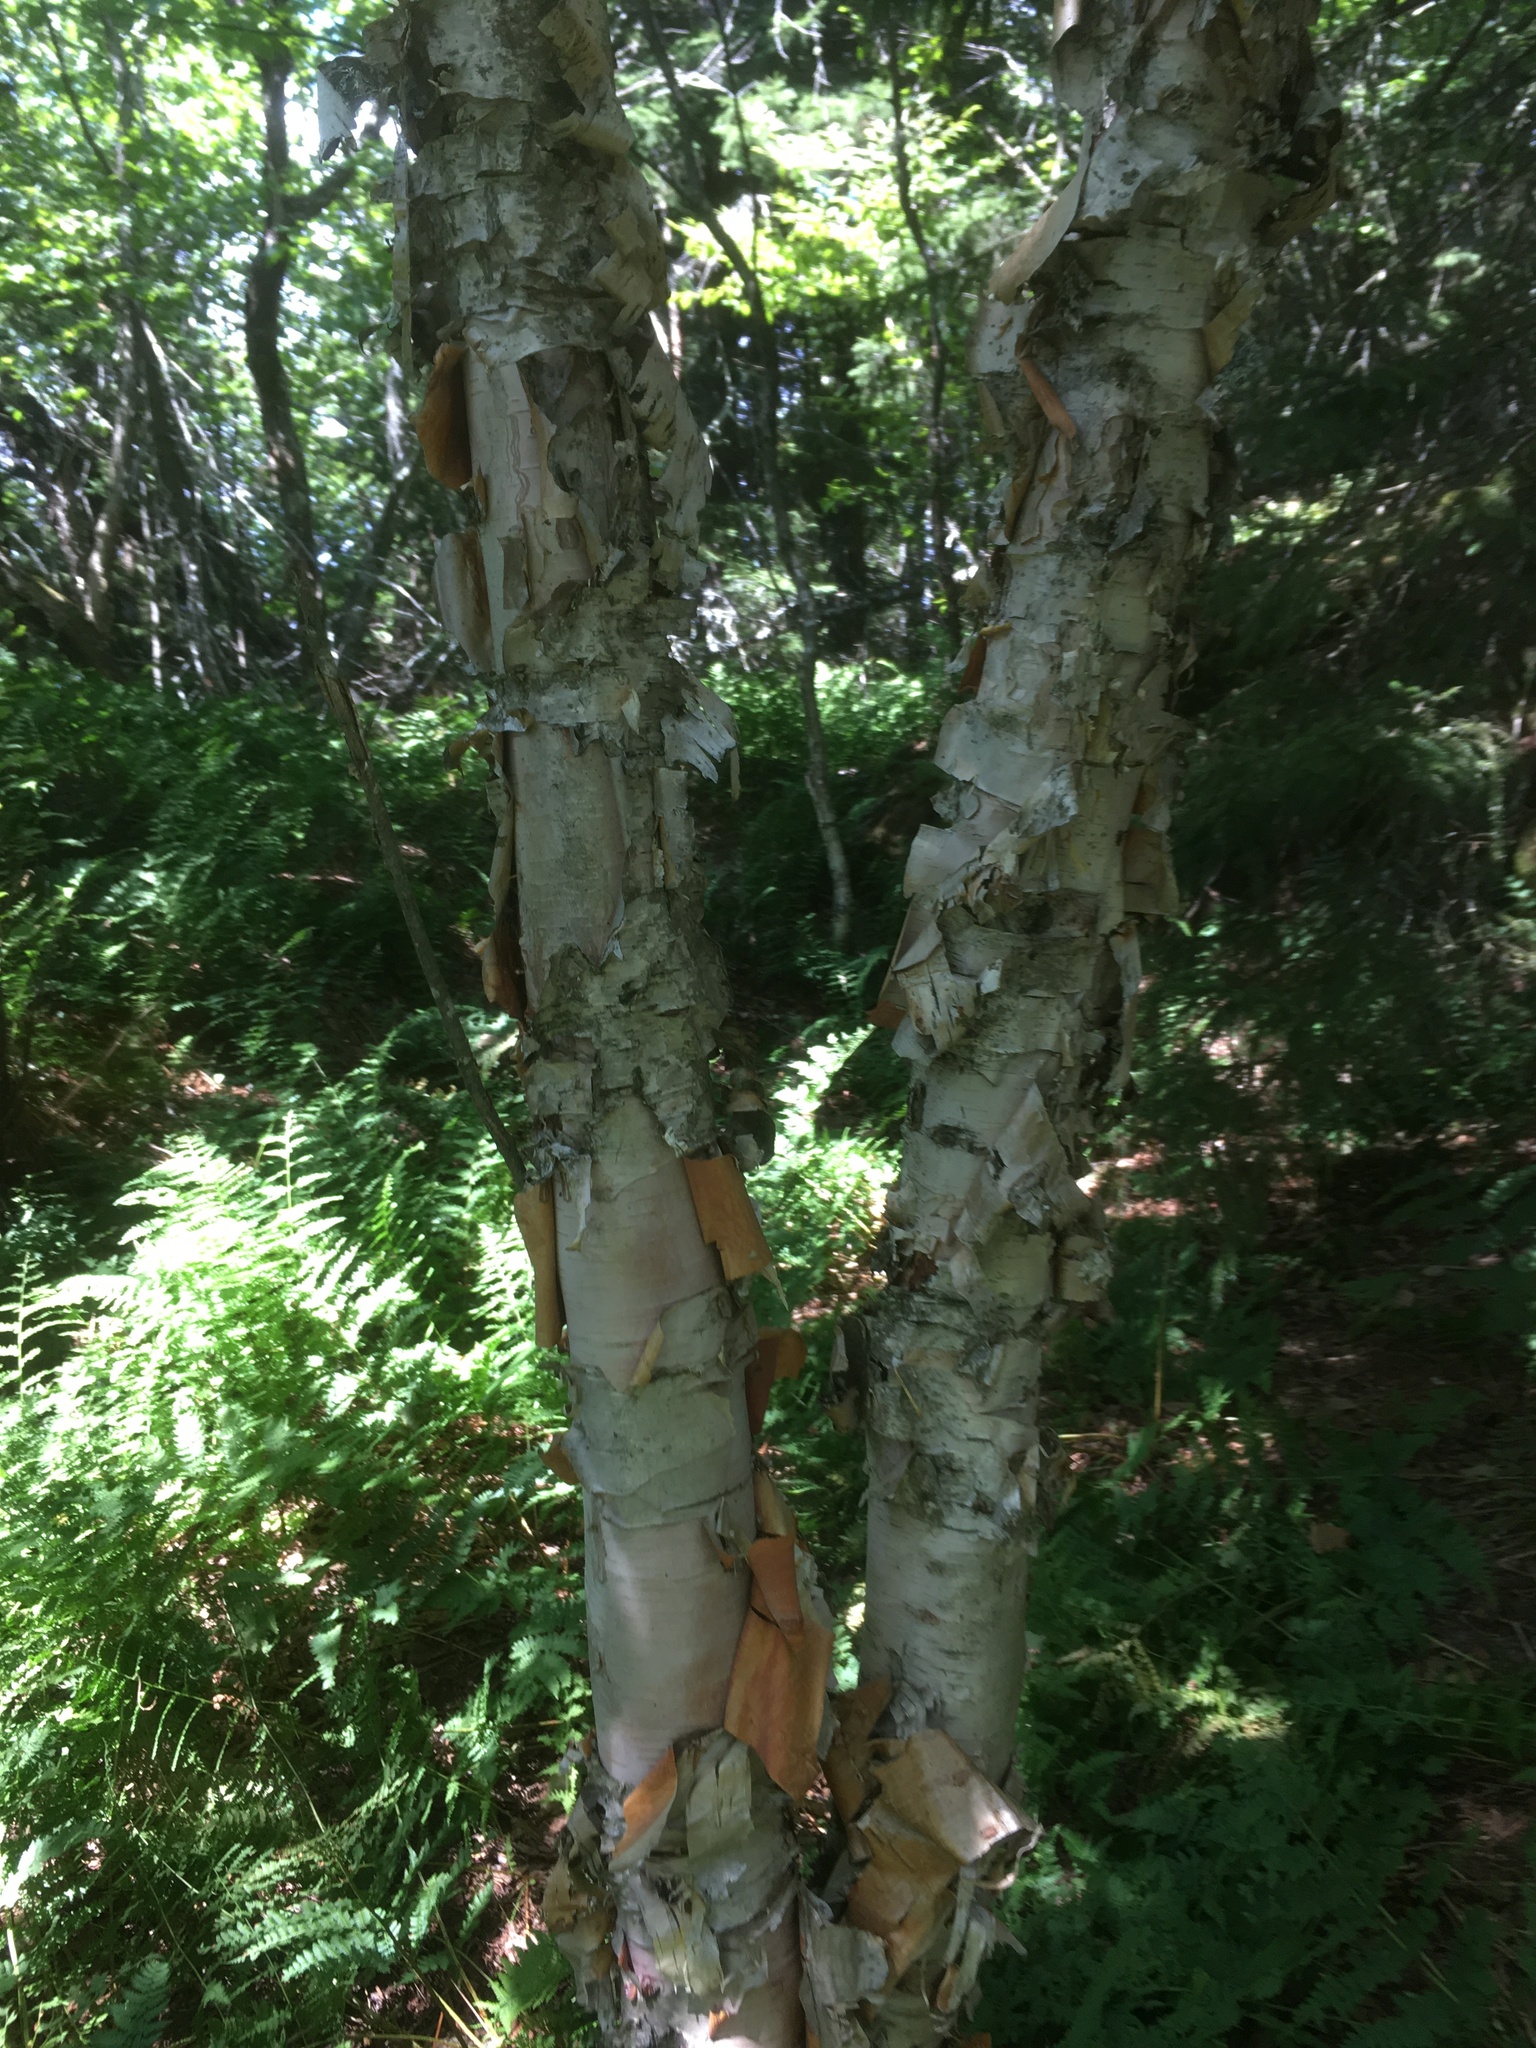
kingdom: Plantae
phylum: Tracheophyta
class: Magnoliopsida
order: Fagales
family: Betulaceae
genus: Betula
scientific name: Betula cordifolia
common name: Mountain white birch
